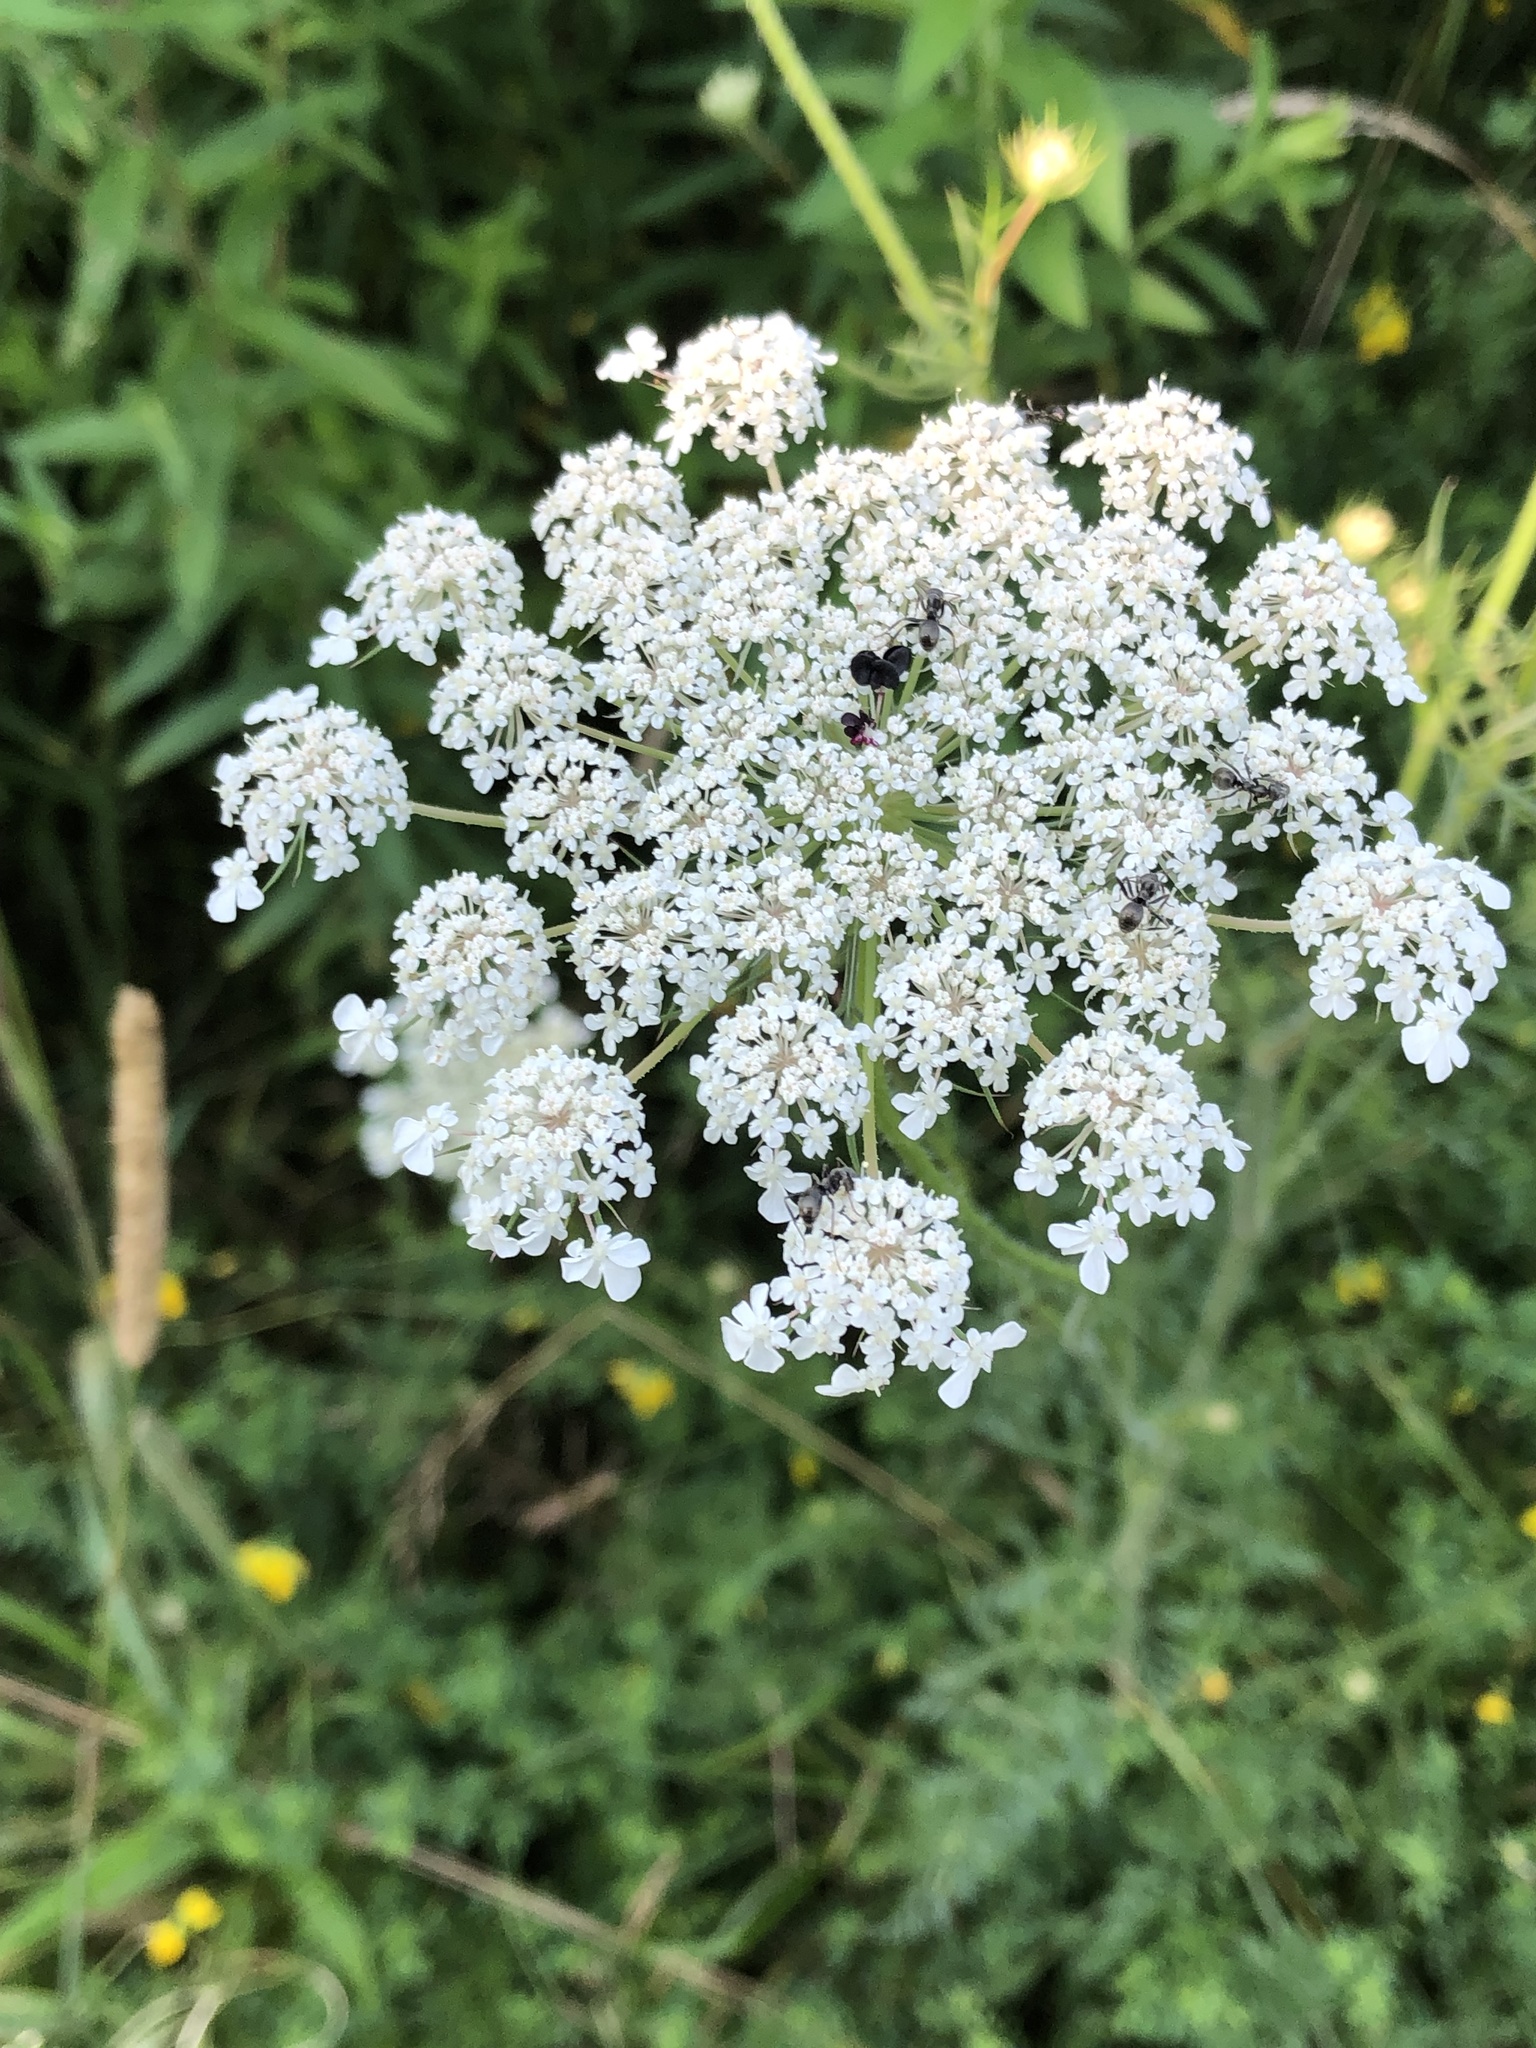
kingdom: Plantae
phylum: Tracheophyta
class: Magnoliopsida
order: Apiales
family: Apiaceae
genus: Daucus
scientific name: Daucus carota
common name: Wild carrot
